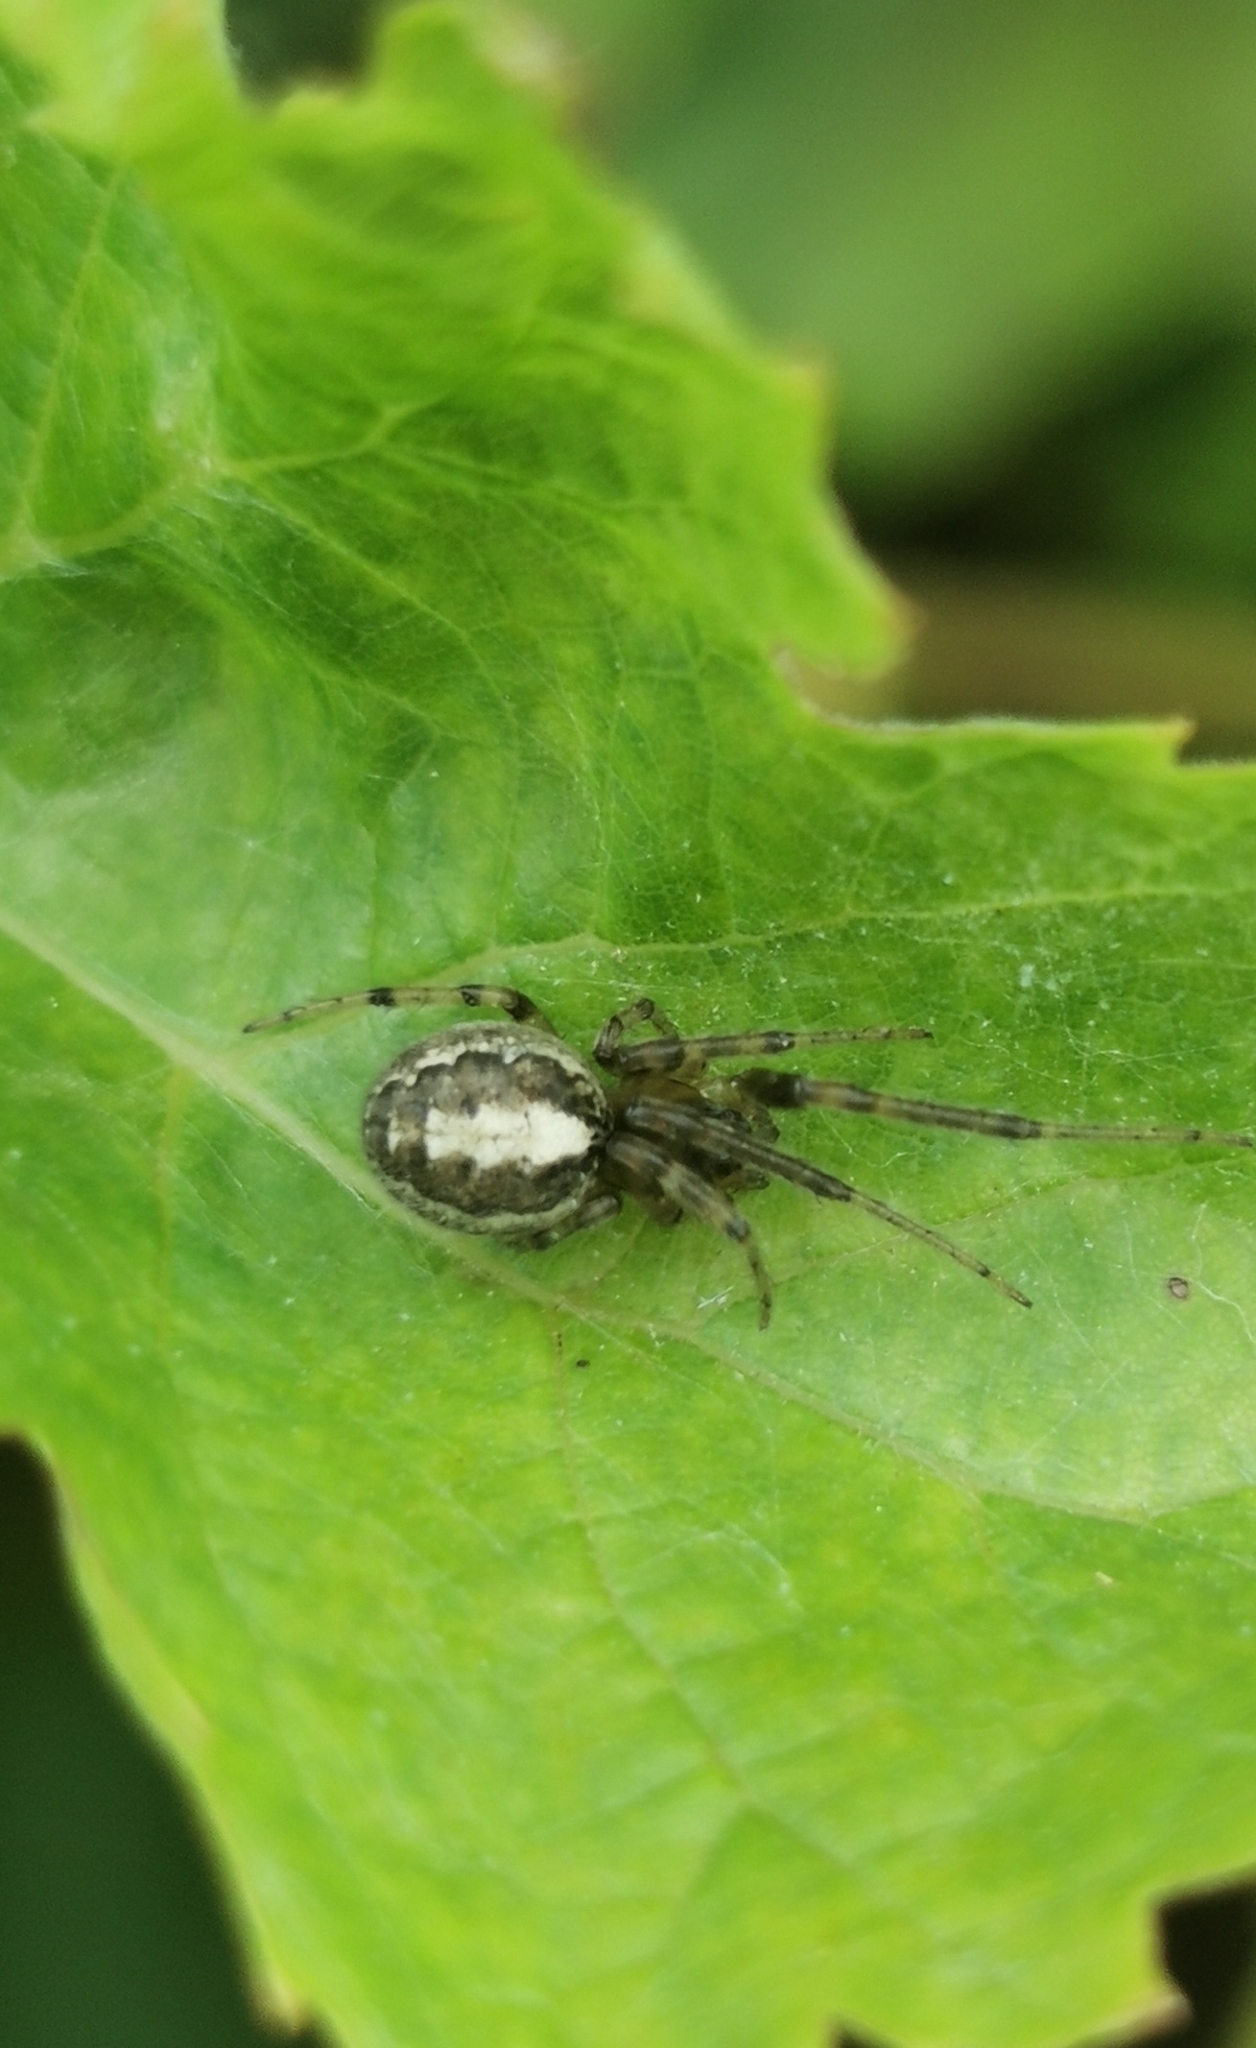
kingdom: Animalia
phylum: Arthropoda
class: Arachnida
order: Araneae
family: Araneidae
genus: Zygiella
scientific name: Zygiella x-notata
